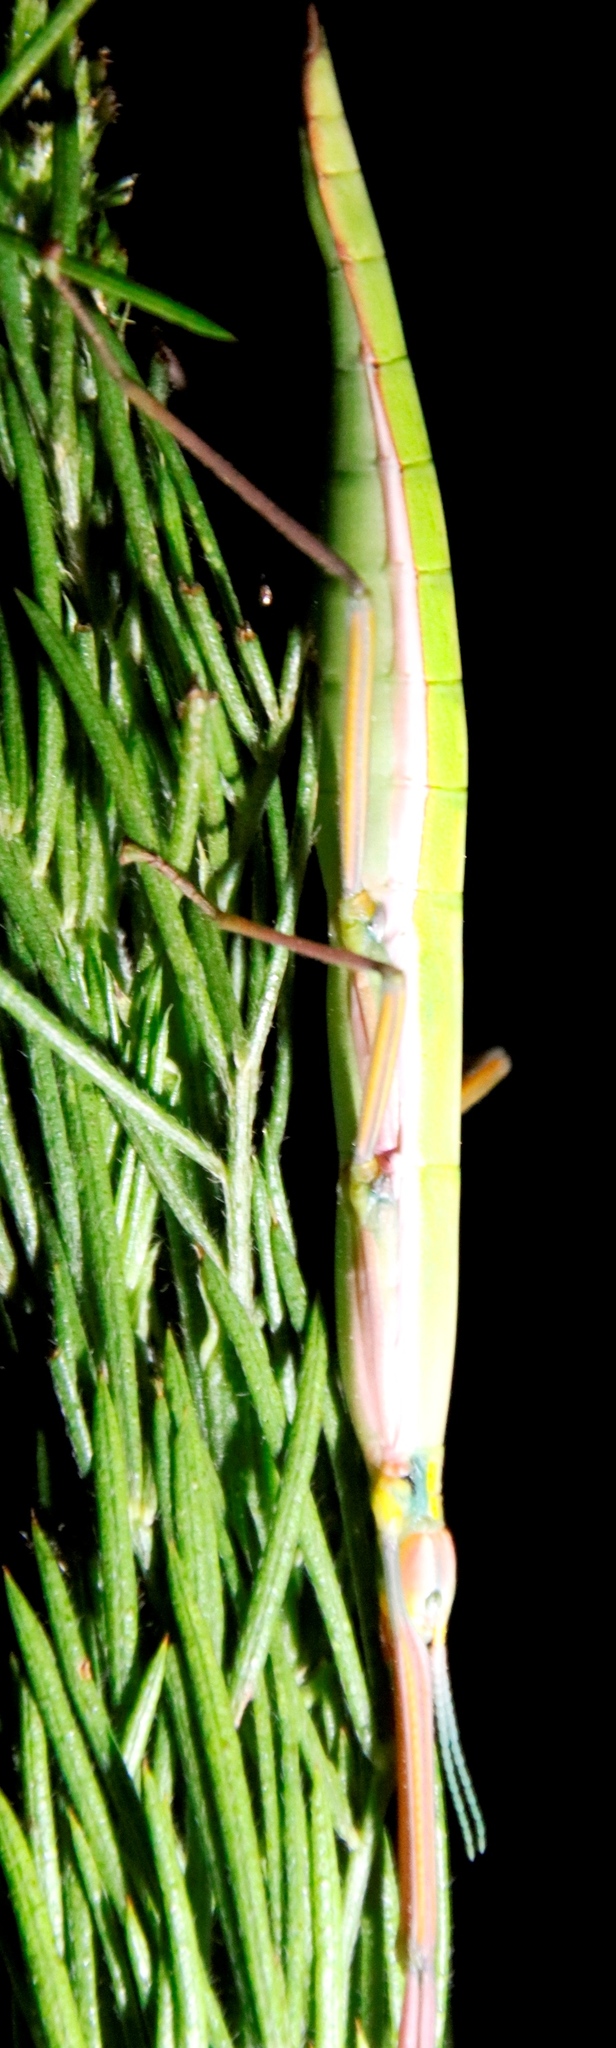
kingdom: Animalia
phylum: Arthropoda
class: Insecta
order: Phasmida
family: Bacillidae
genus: Macynia
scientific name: Macynia labiata
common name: Thunberg's stick insect
